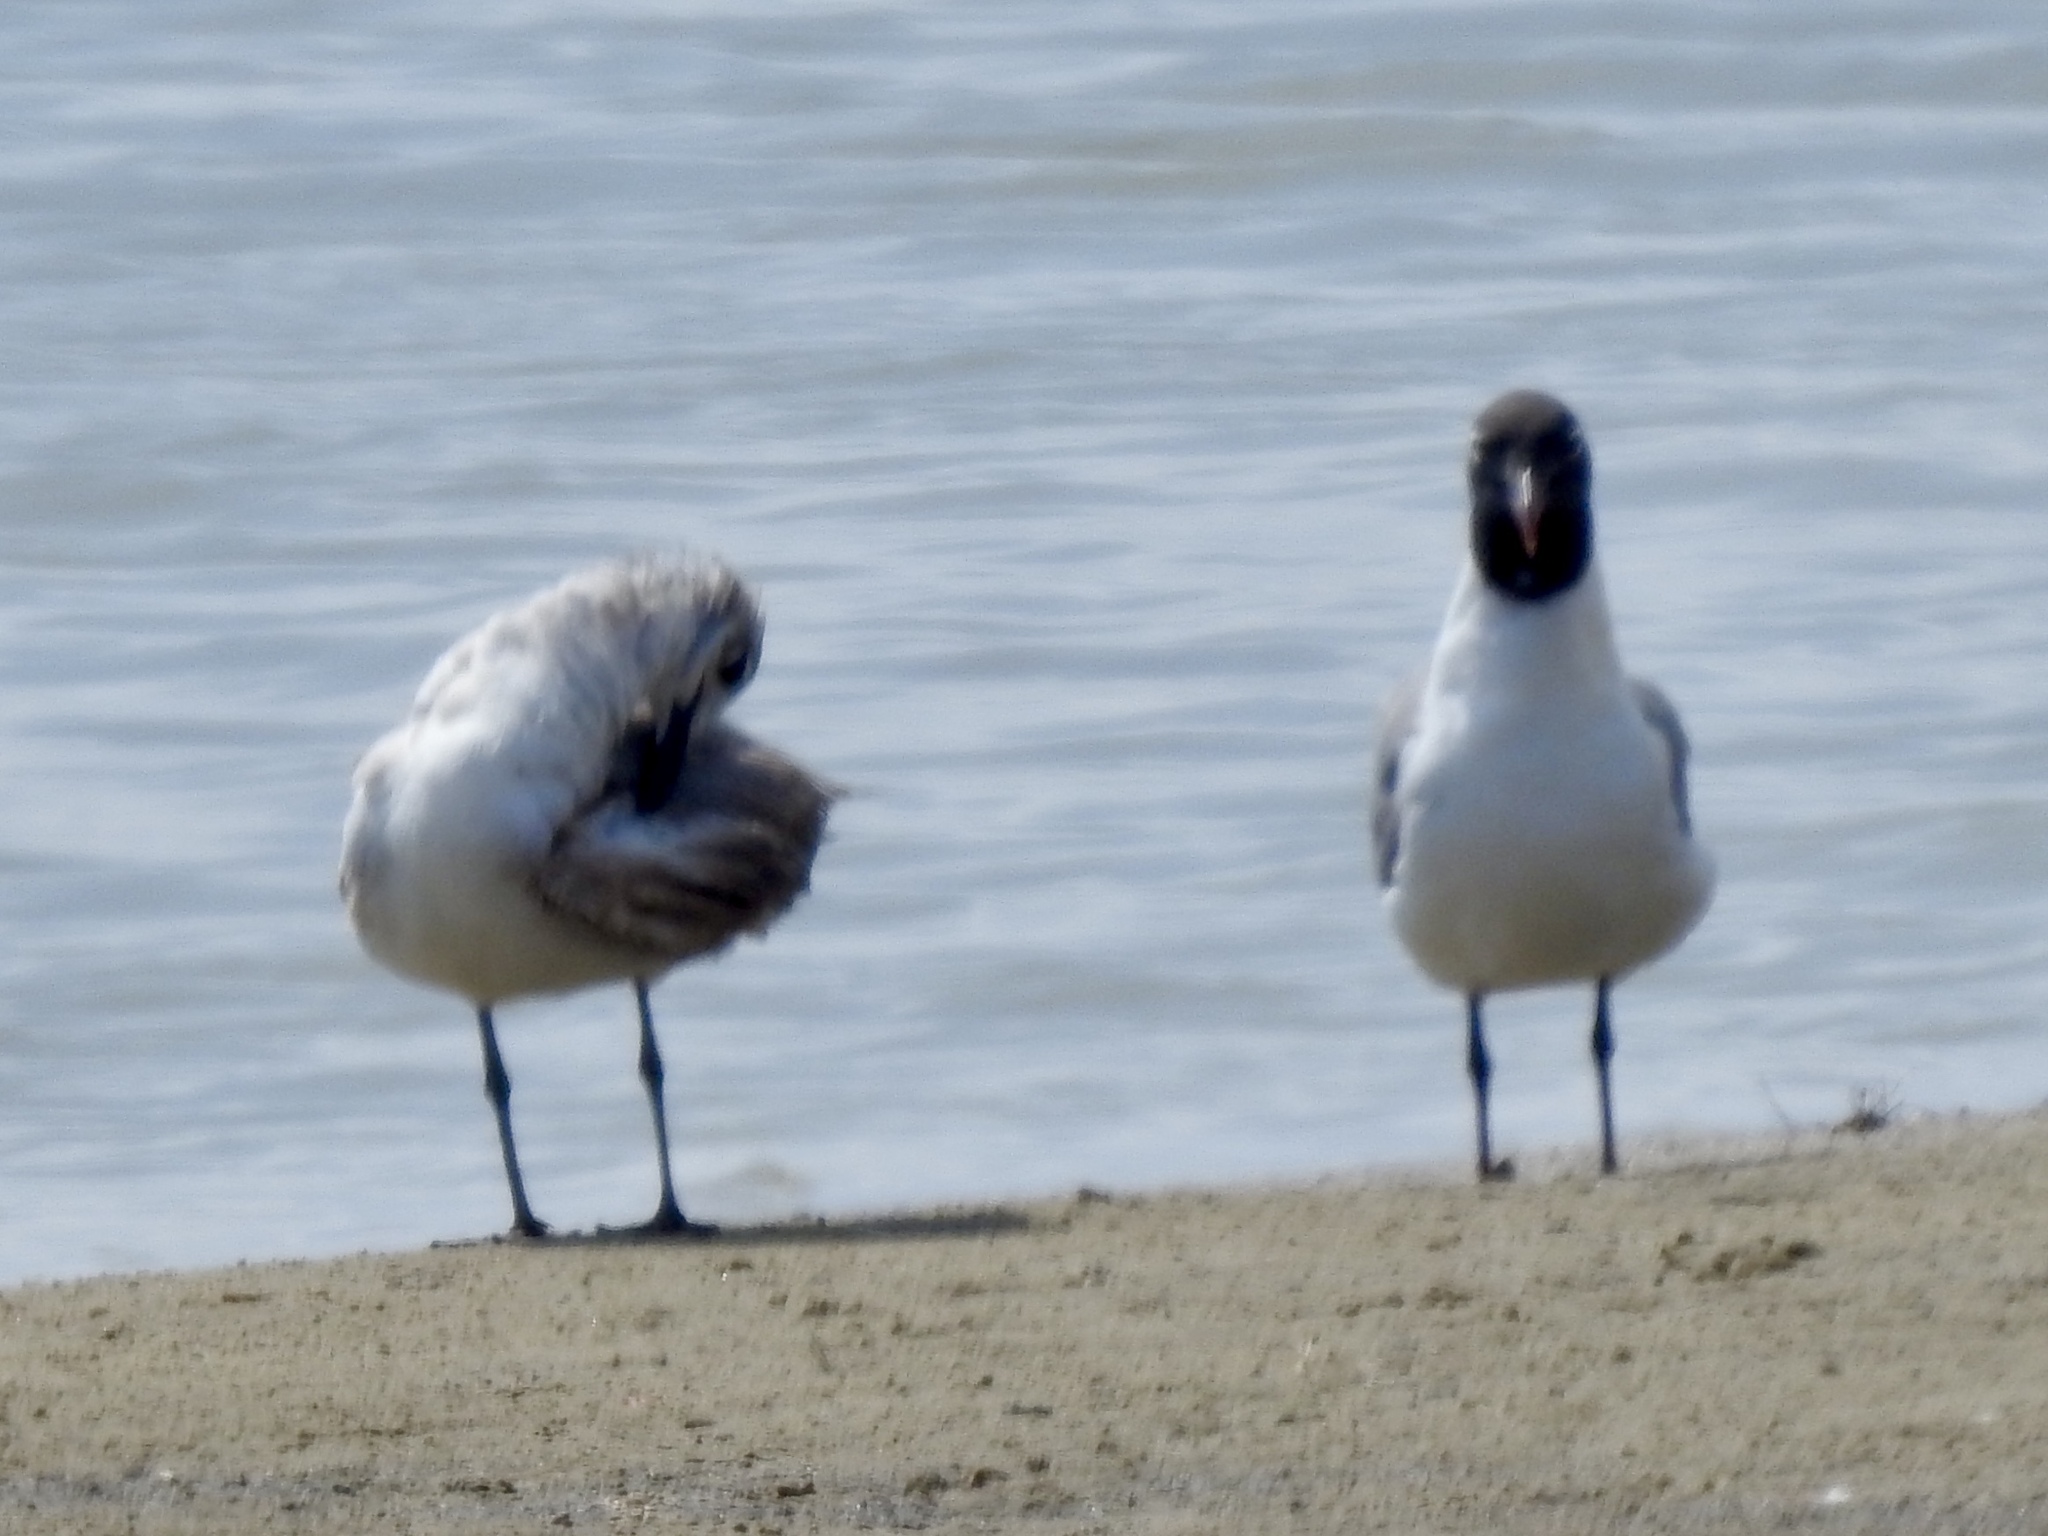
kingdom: Animalia
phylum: Chordata
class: Aves
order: Charadriiformes
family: Laridae
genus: Leucophaeus
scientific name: Leucophaeus atricilla
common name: Laughing gull
